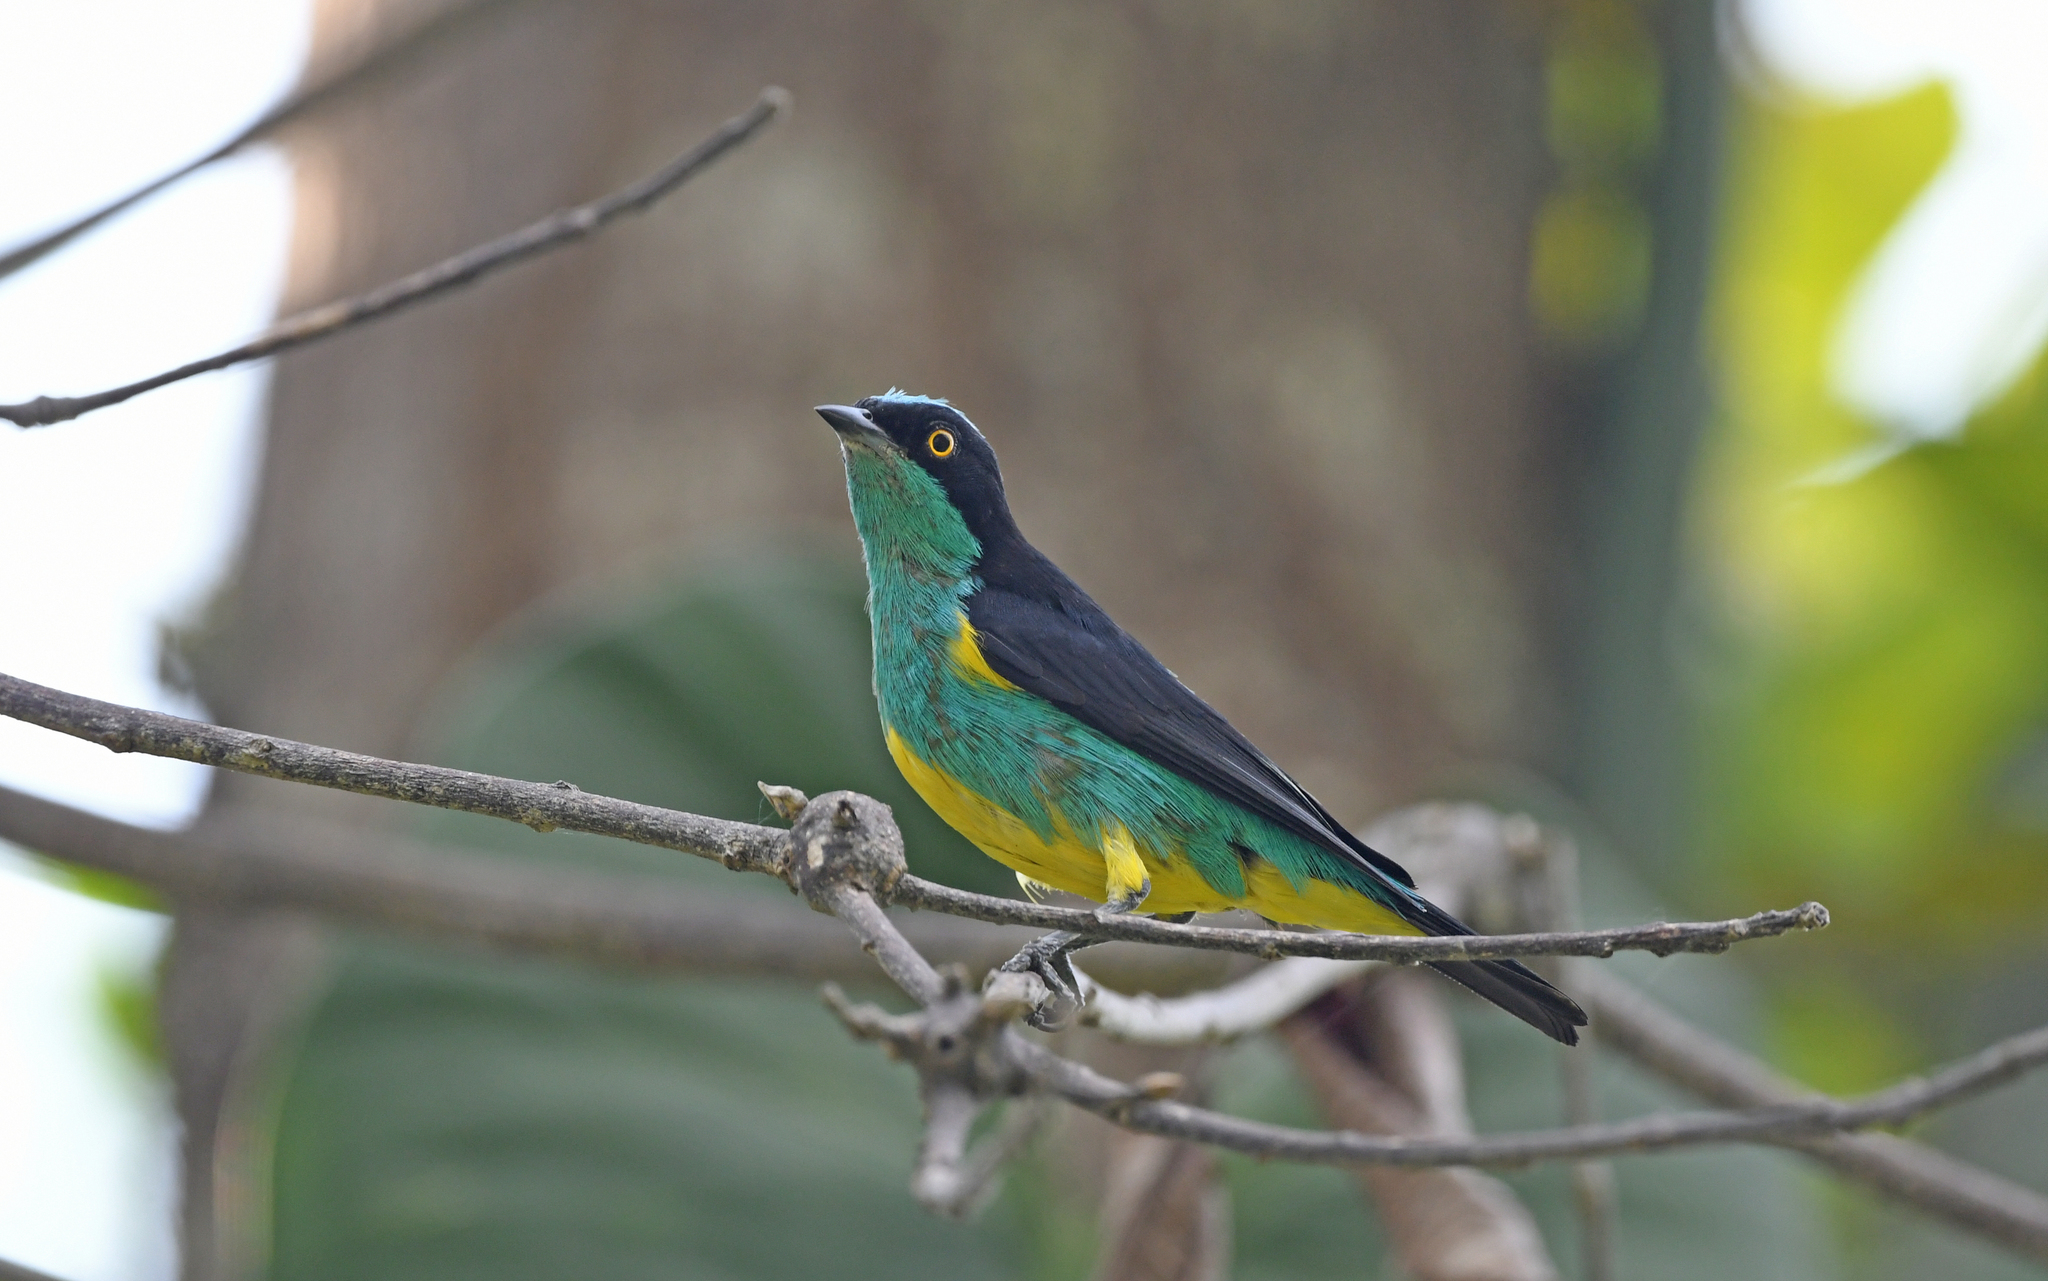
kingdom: Animalia
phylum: Chordata
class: Aves
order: Passeriformes
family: Thraupidae
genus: Dacnis
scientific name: Dacnis egregia
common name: Yellow-tufted dacnis
